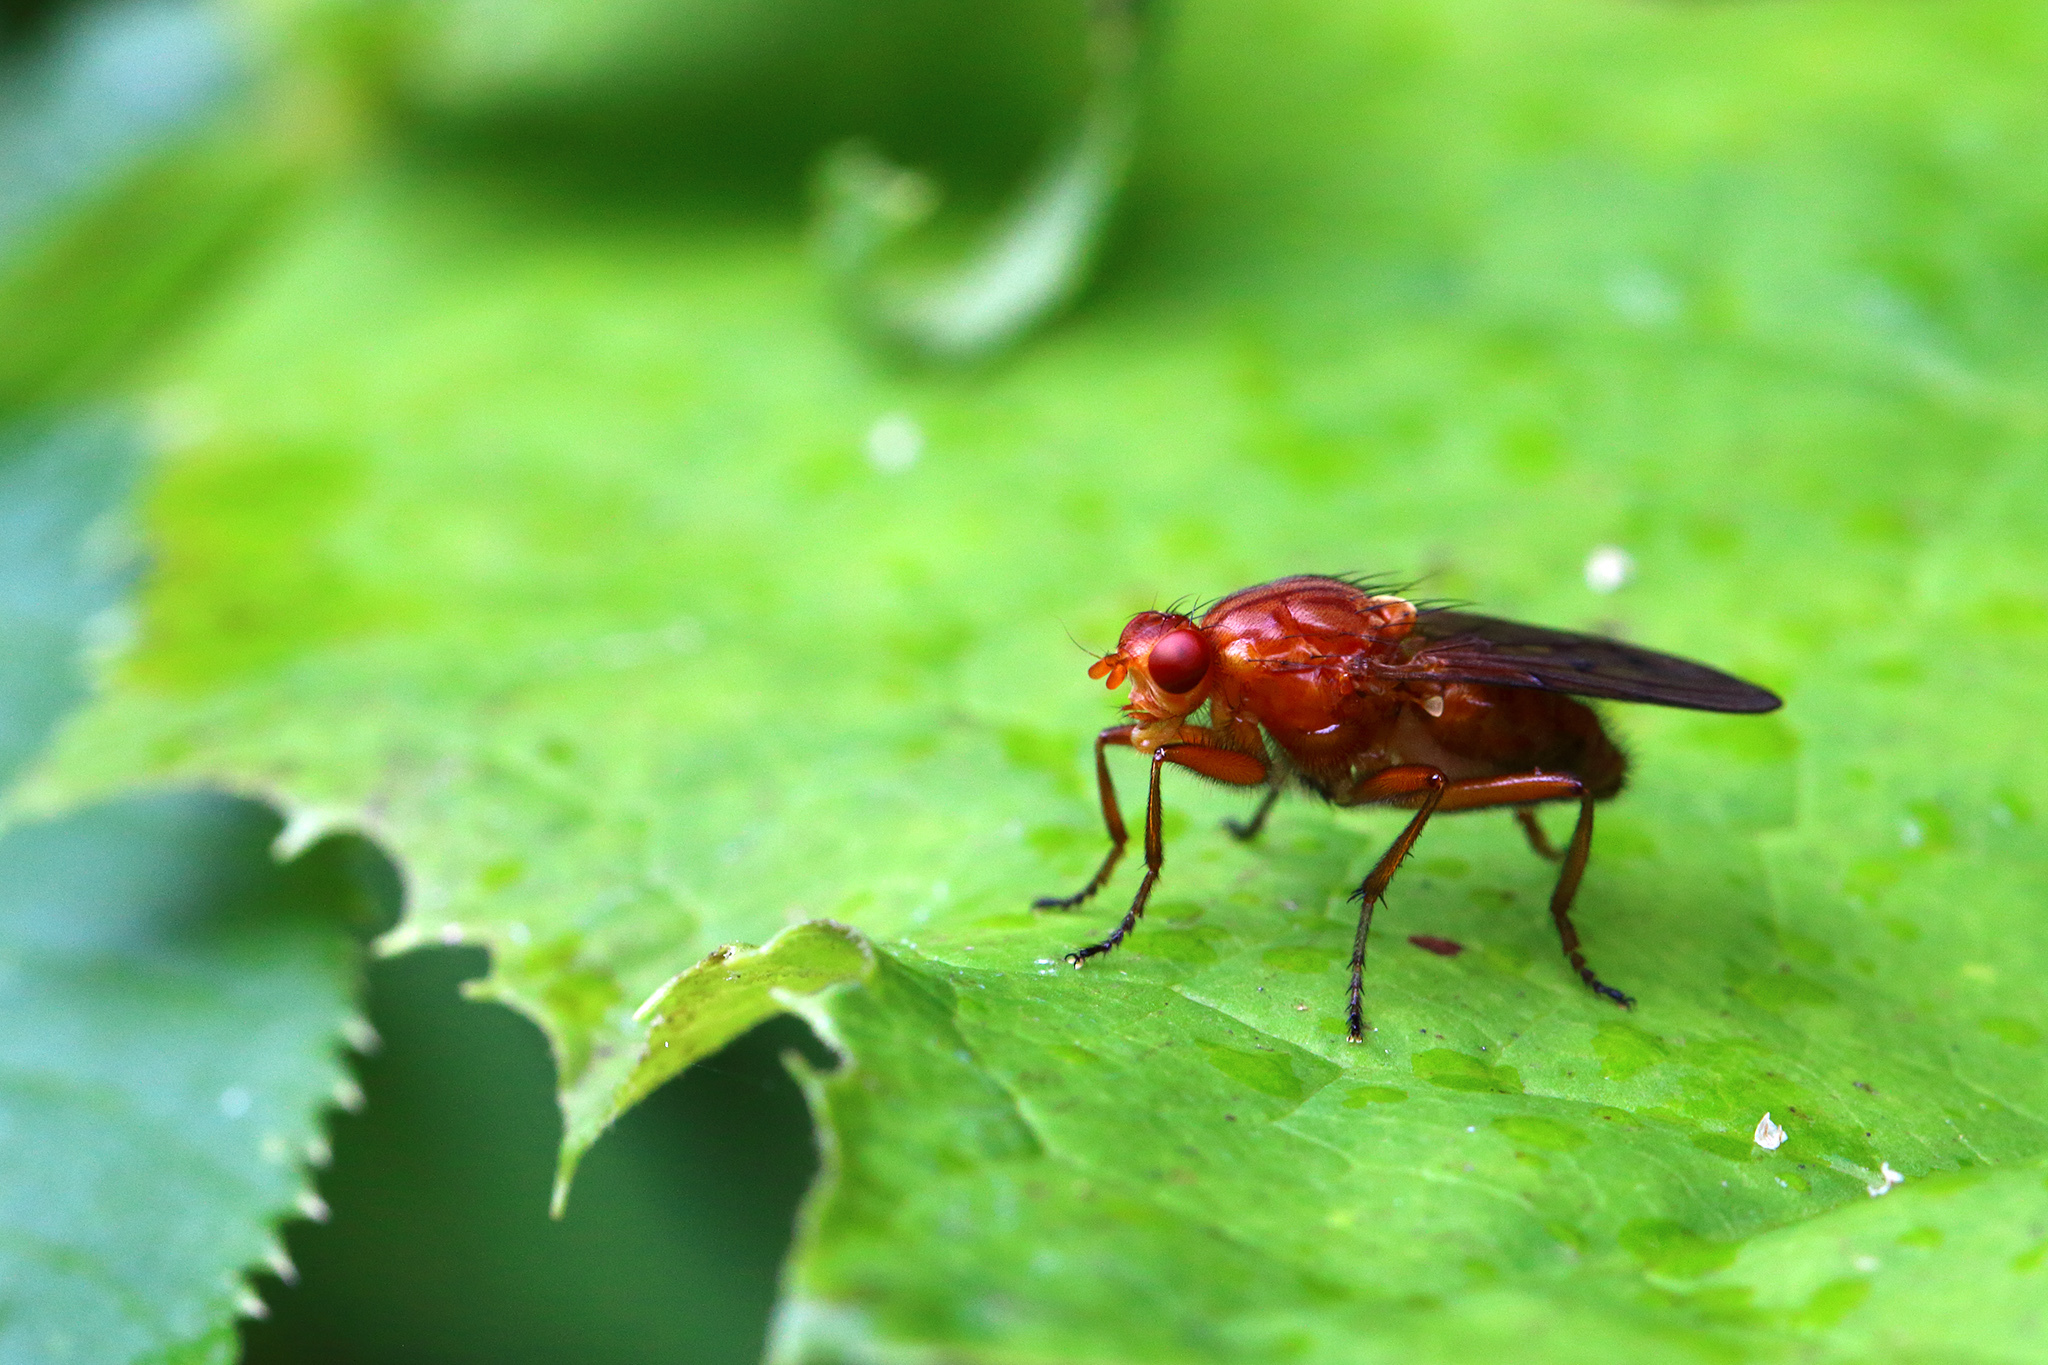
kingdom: Animalia
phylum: Arthropoda
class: Insecta
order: Diptera
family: Dryomyzidae
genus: Dryomyza
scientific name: Dryomyza anilis
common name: Marsh fly
